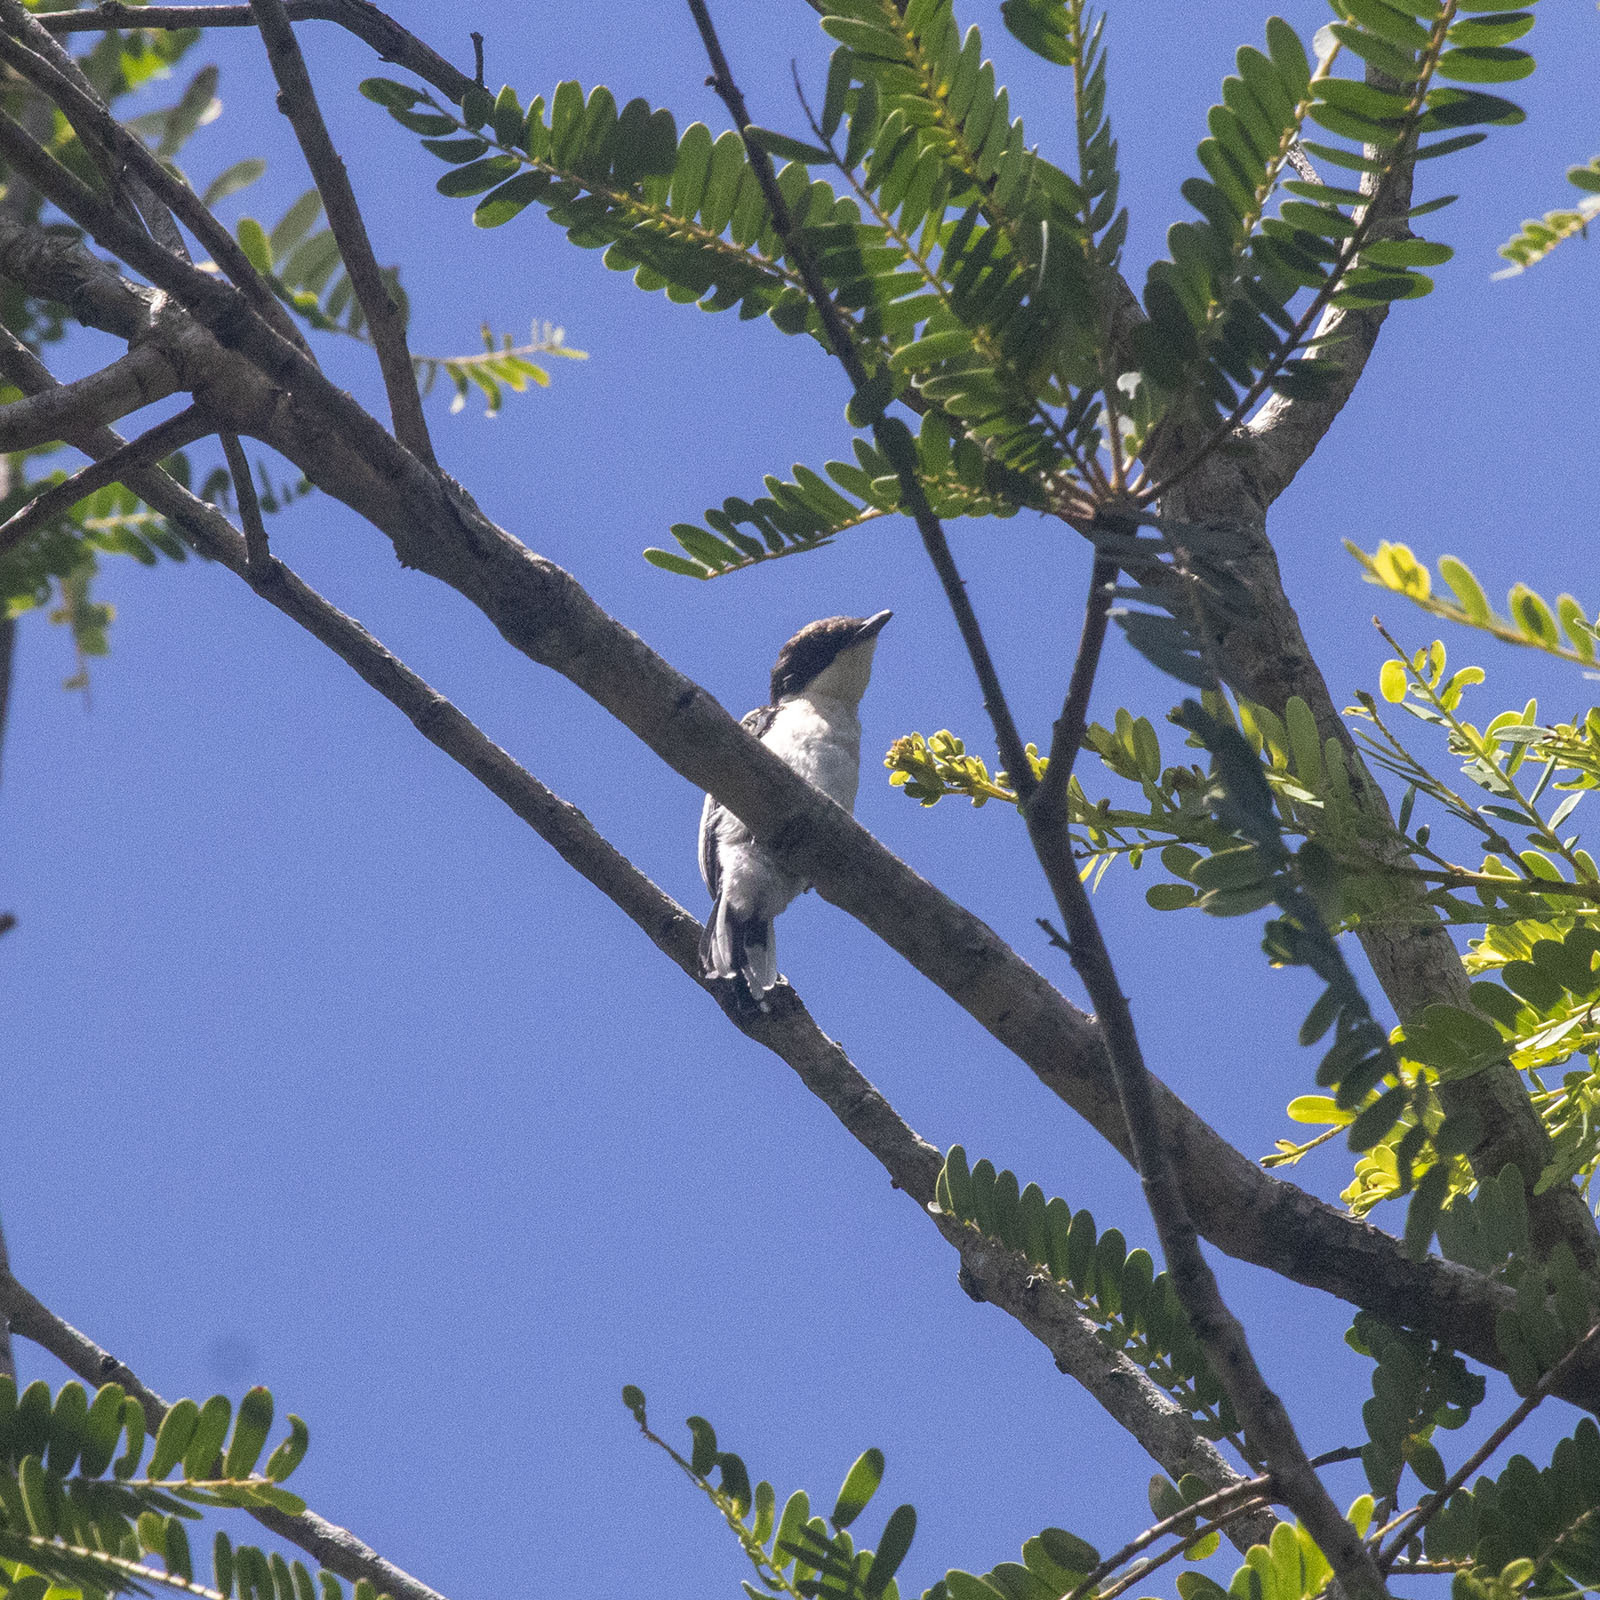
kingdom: Animalia
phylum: Chordata
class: Aves
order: Passeriformes
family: Tephrodornithidae
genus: Hemipus
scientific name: Hemipus picatus
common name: Bar-winged flycatcher-shrike
